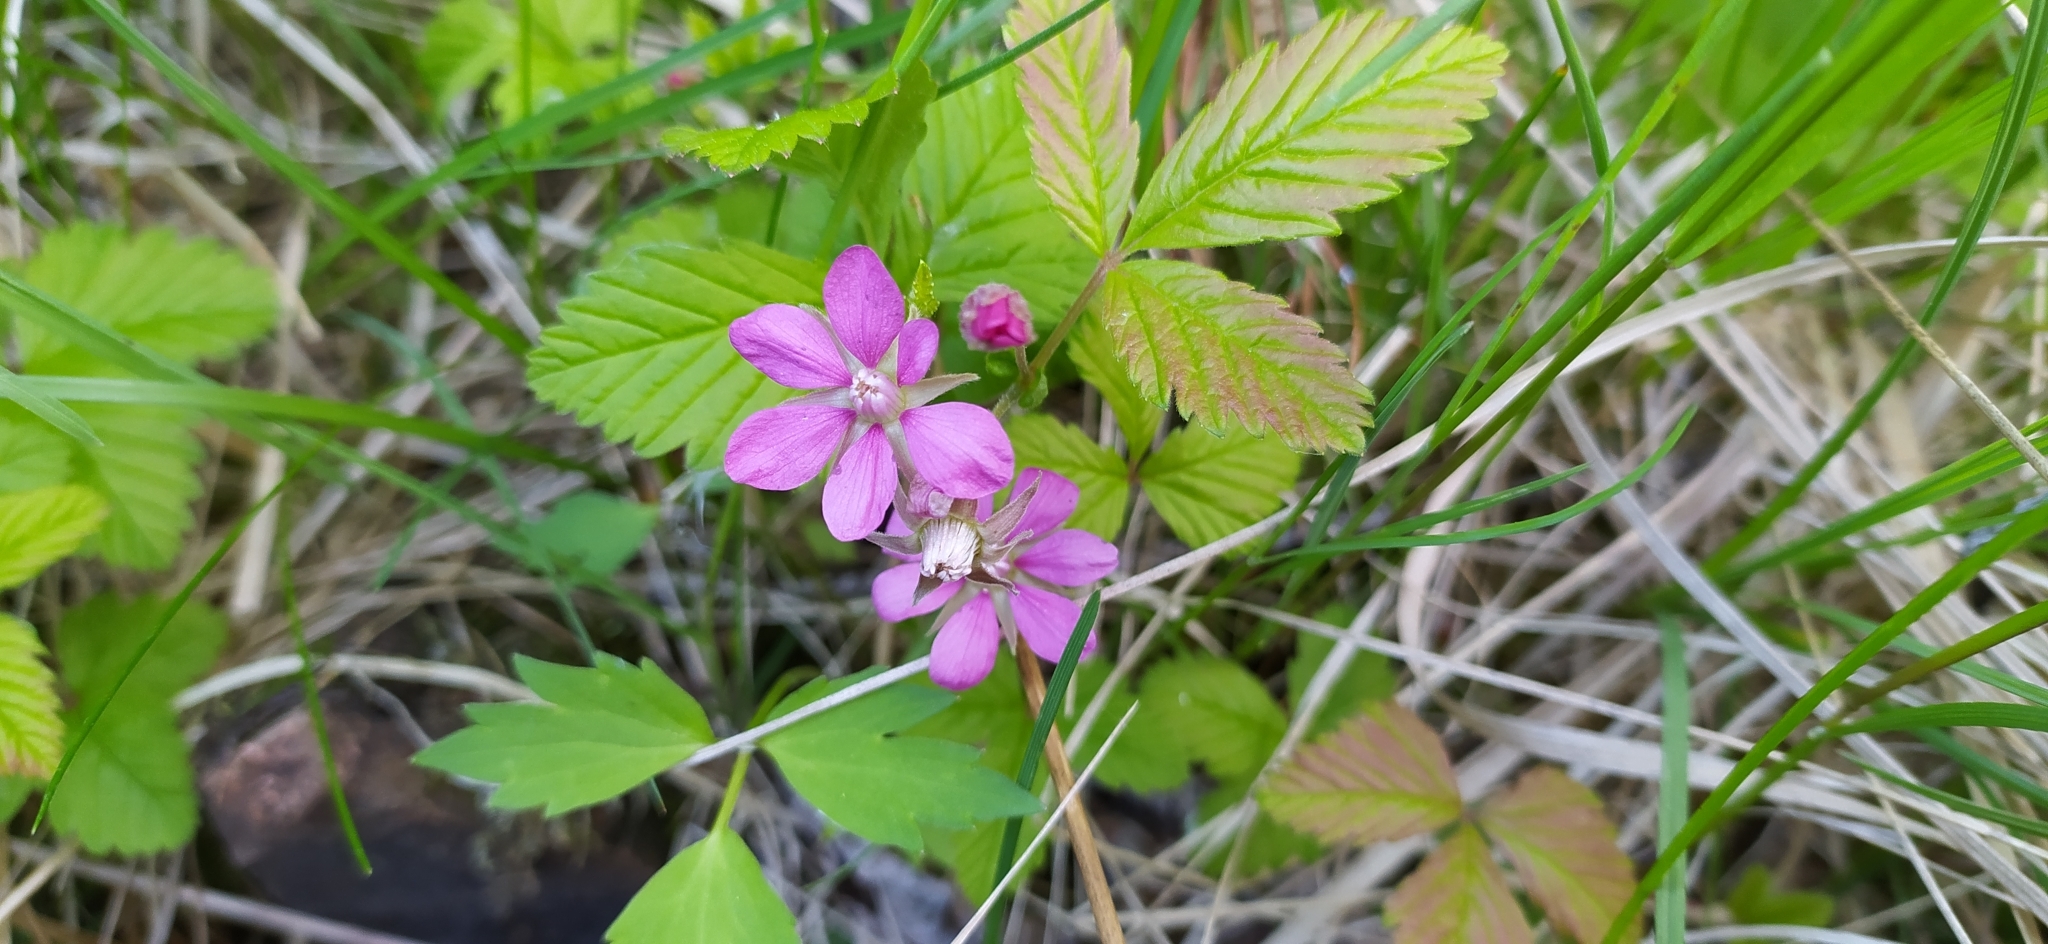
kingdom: Plantae
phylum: Tracheophyta
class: Magnoliopsida
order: Rosales
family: Rosaceae
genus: Rubus
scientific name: Rubus arcticus
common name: Arctic bramble
